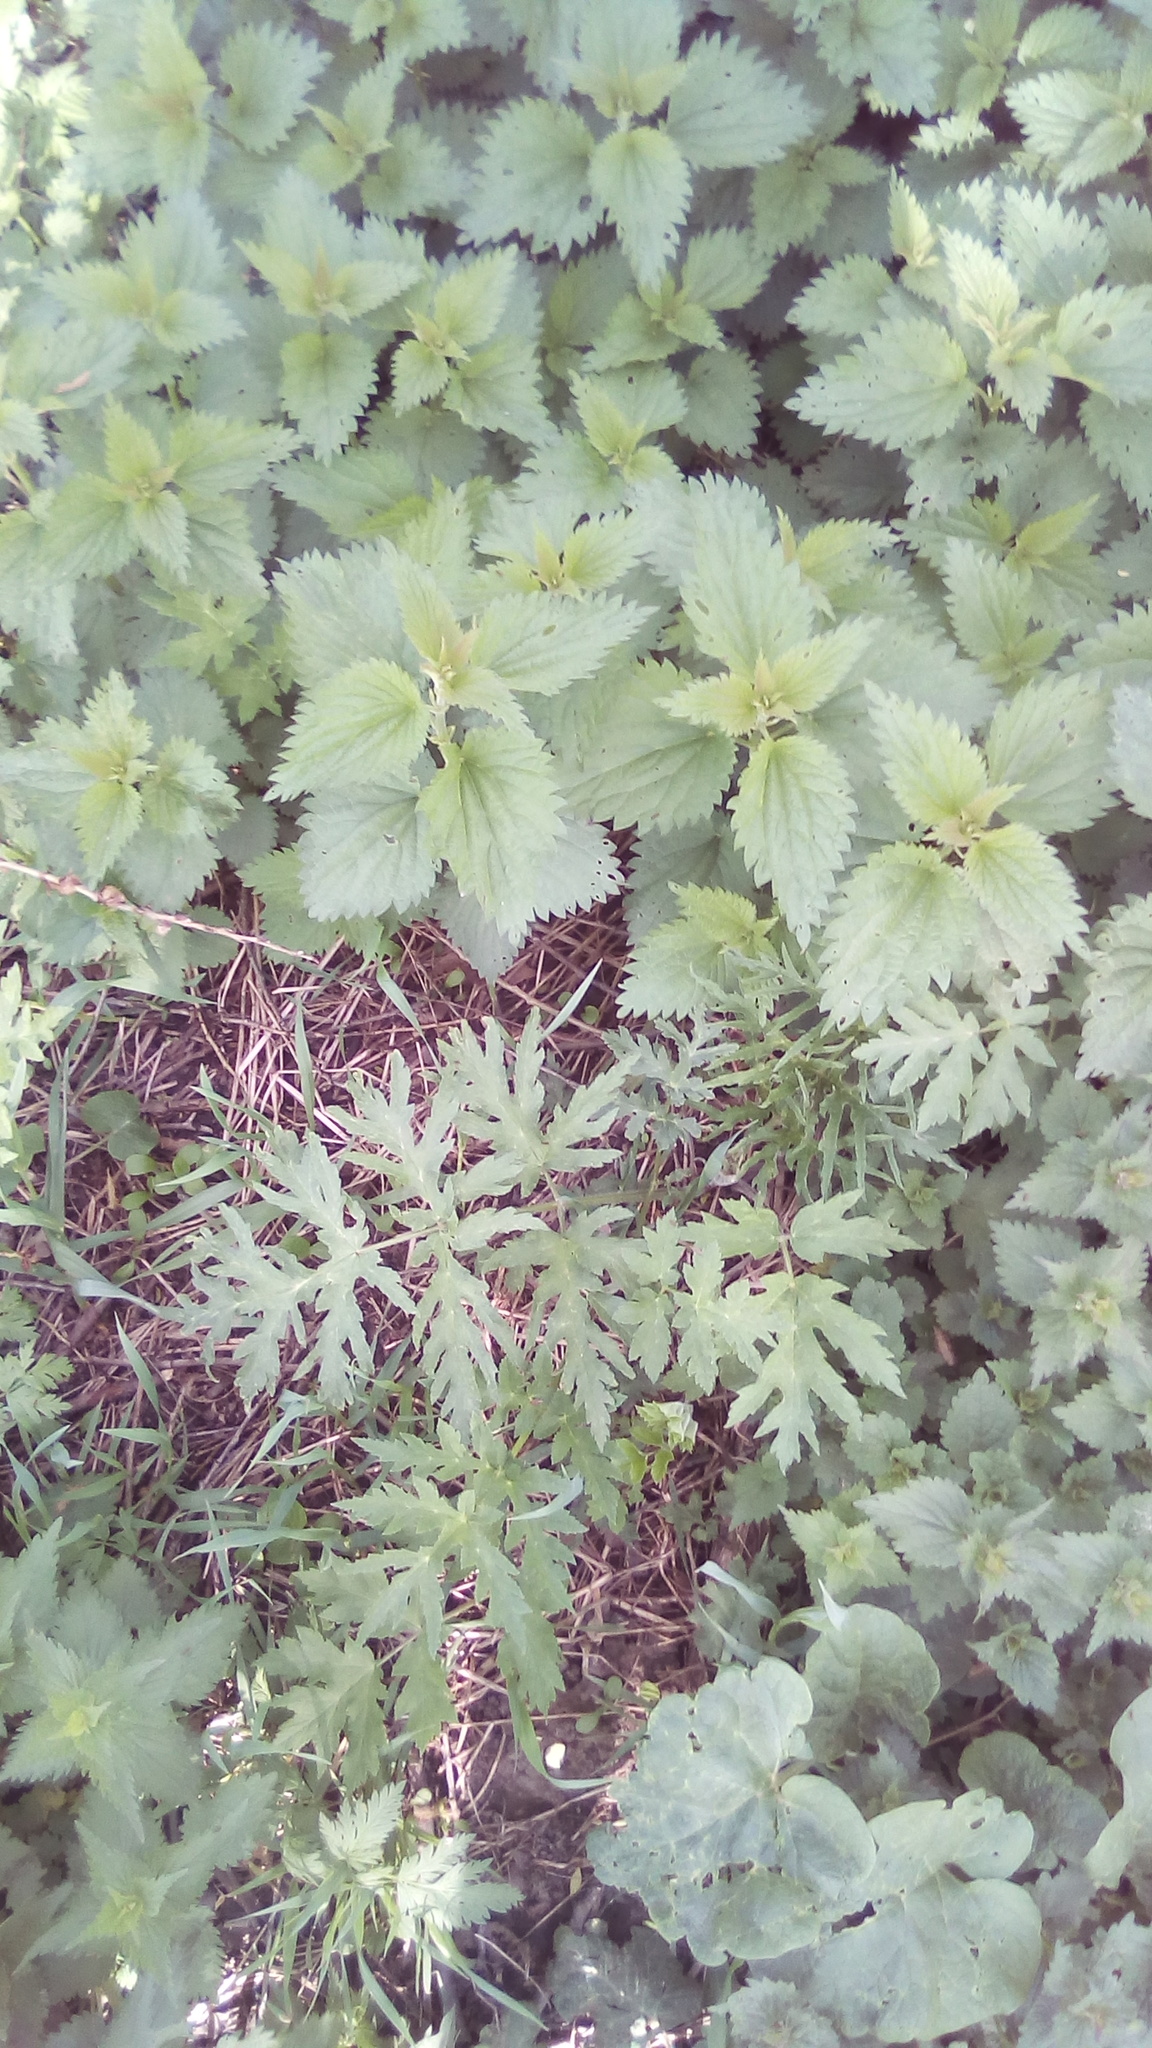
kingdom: Plantae
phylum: Tracheophyta
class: Magnoliopsida
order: Apiales
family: Apiaceae
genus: Heracleum
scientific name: Heracleum sphondylium
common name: Hogweed
